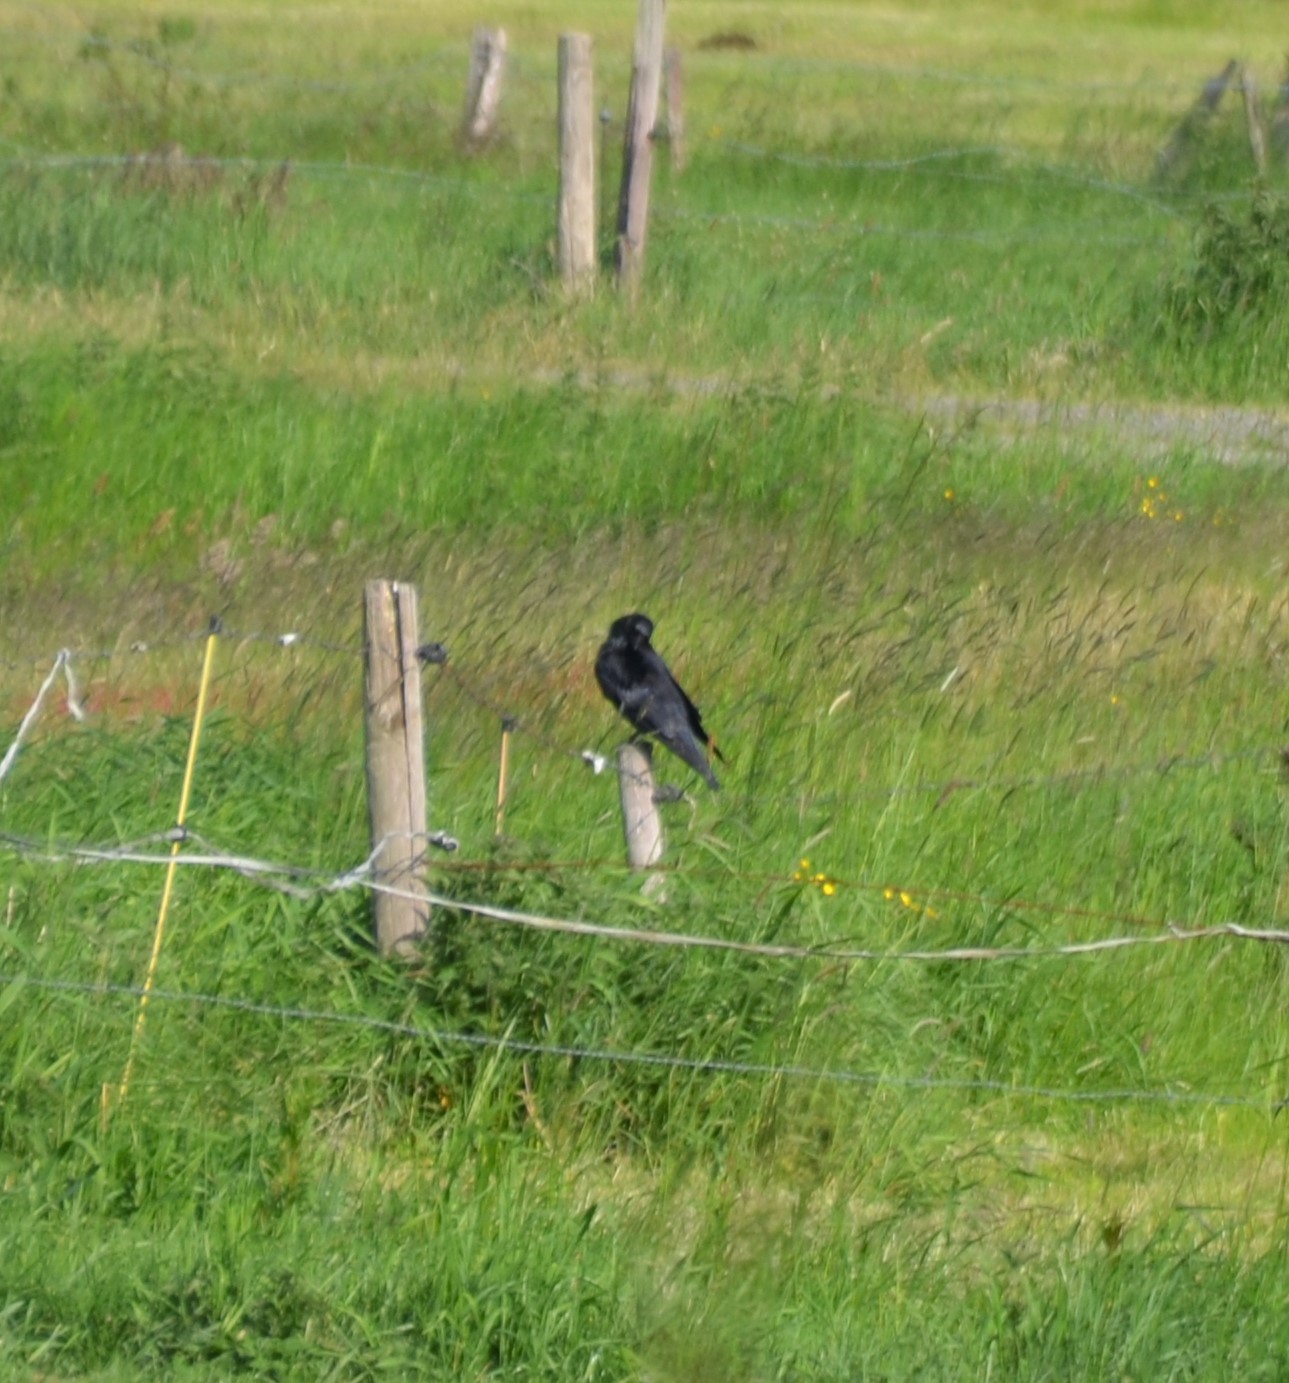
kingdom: Animalia
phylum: Chordata
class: Aves
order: Passeriformes
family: Corvidae
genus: Corvus
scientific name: Corvus corone
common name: Carrion crow
